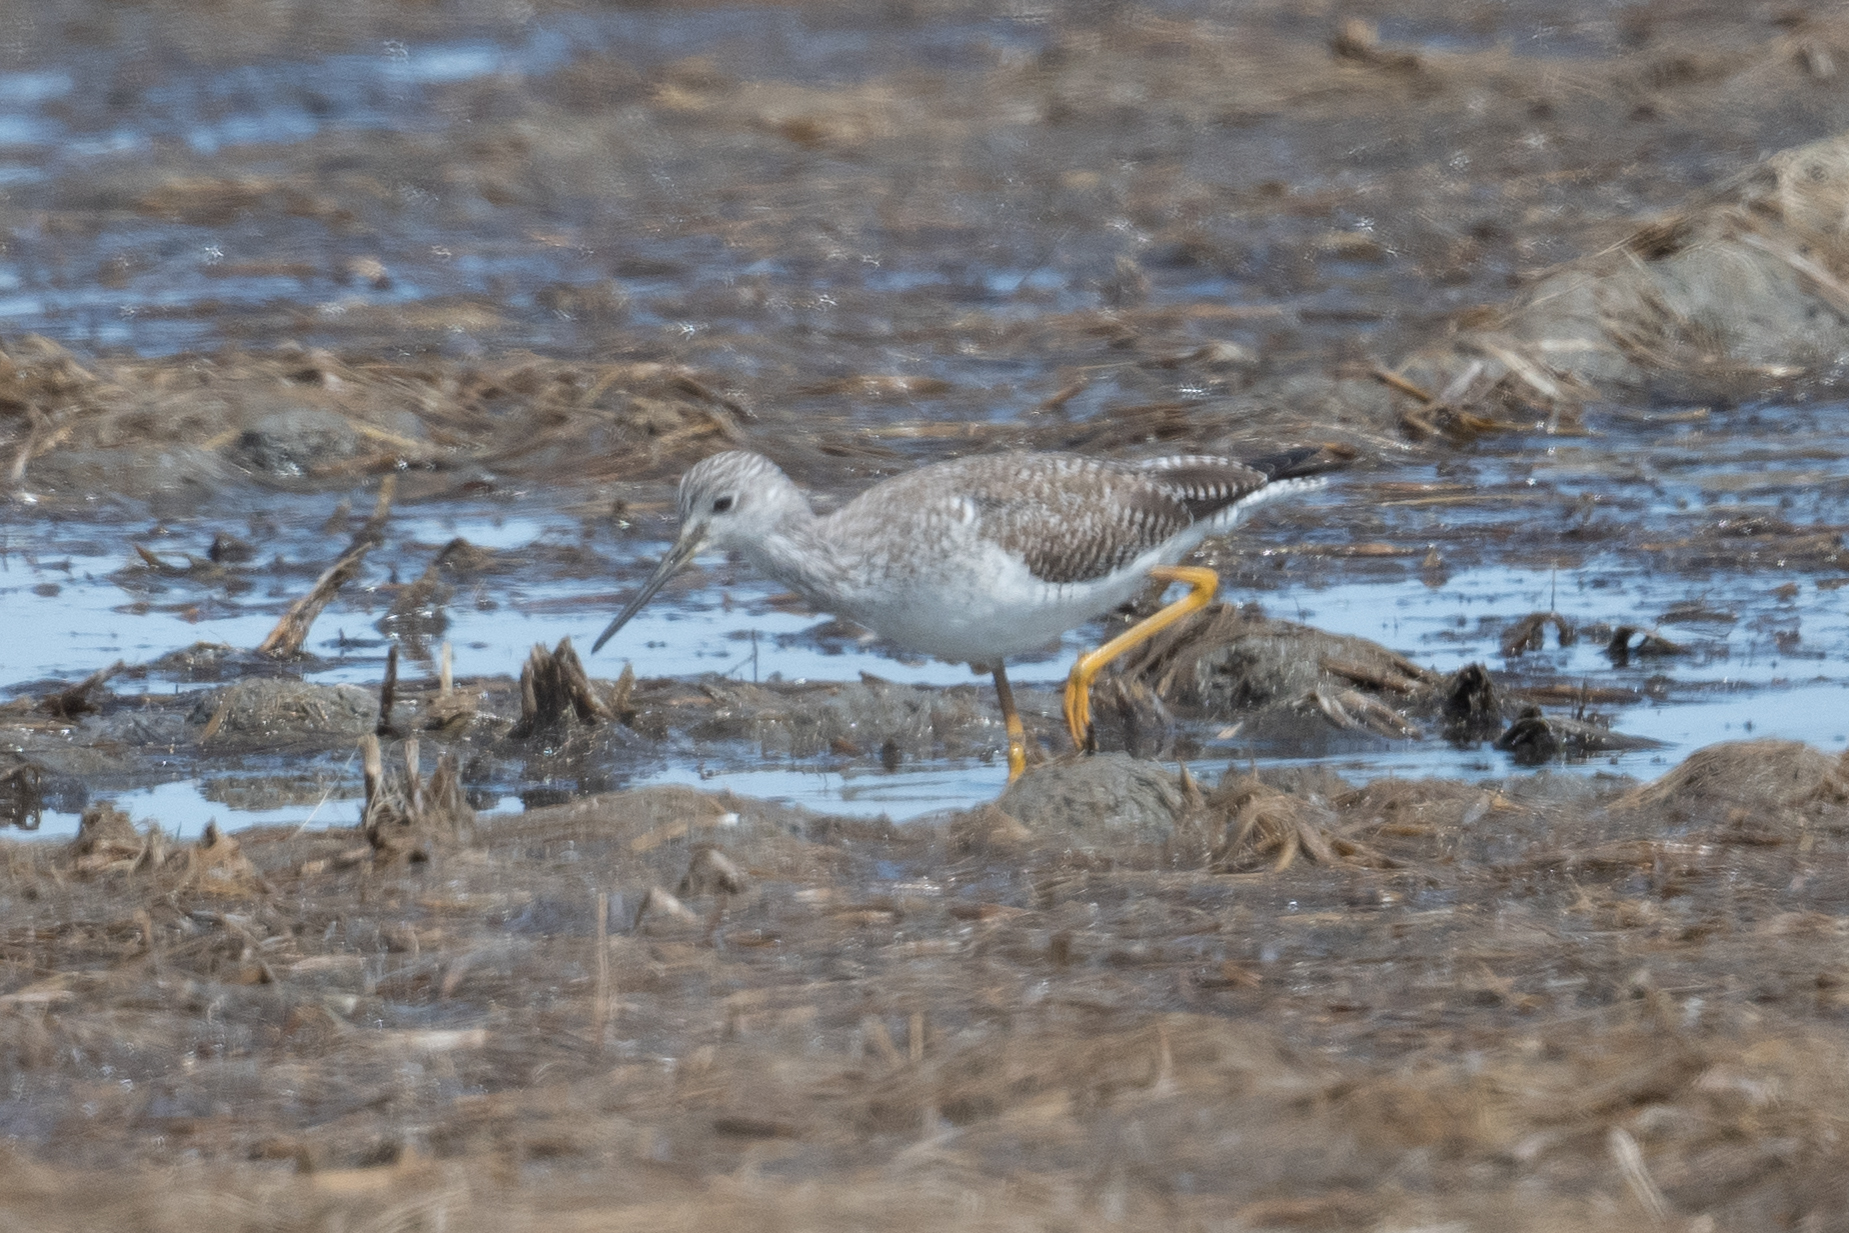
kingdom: Animalia
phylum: Chordata
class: Aves
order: Charadriiformes
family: Scolopacidae
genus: Tringa
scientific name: Tringa melanoleuca
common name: Greater yellowlegs
